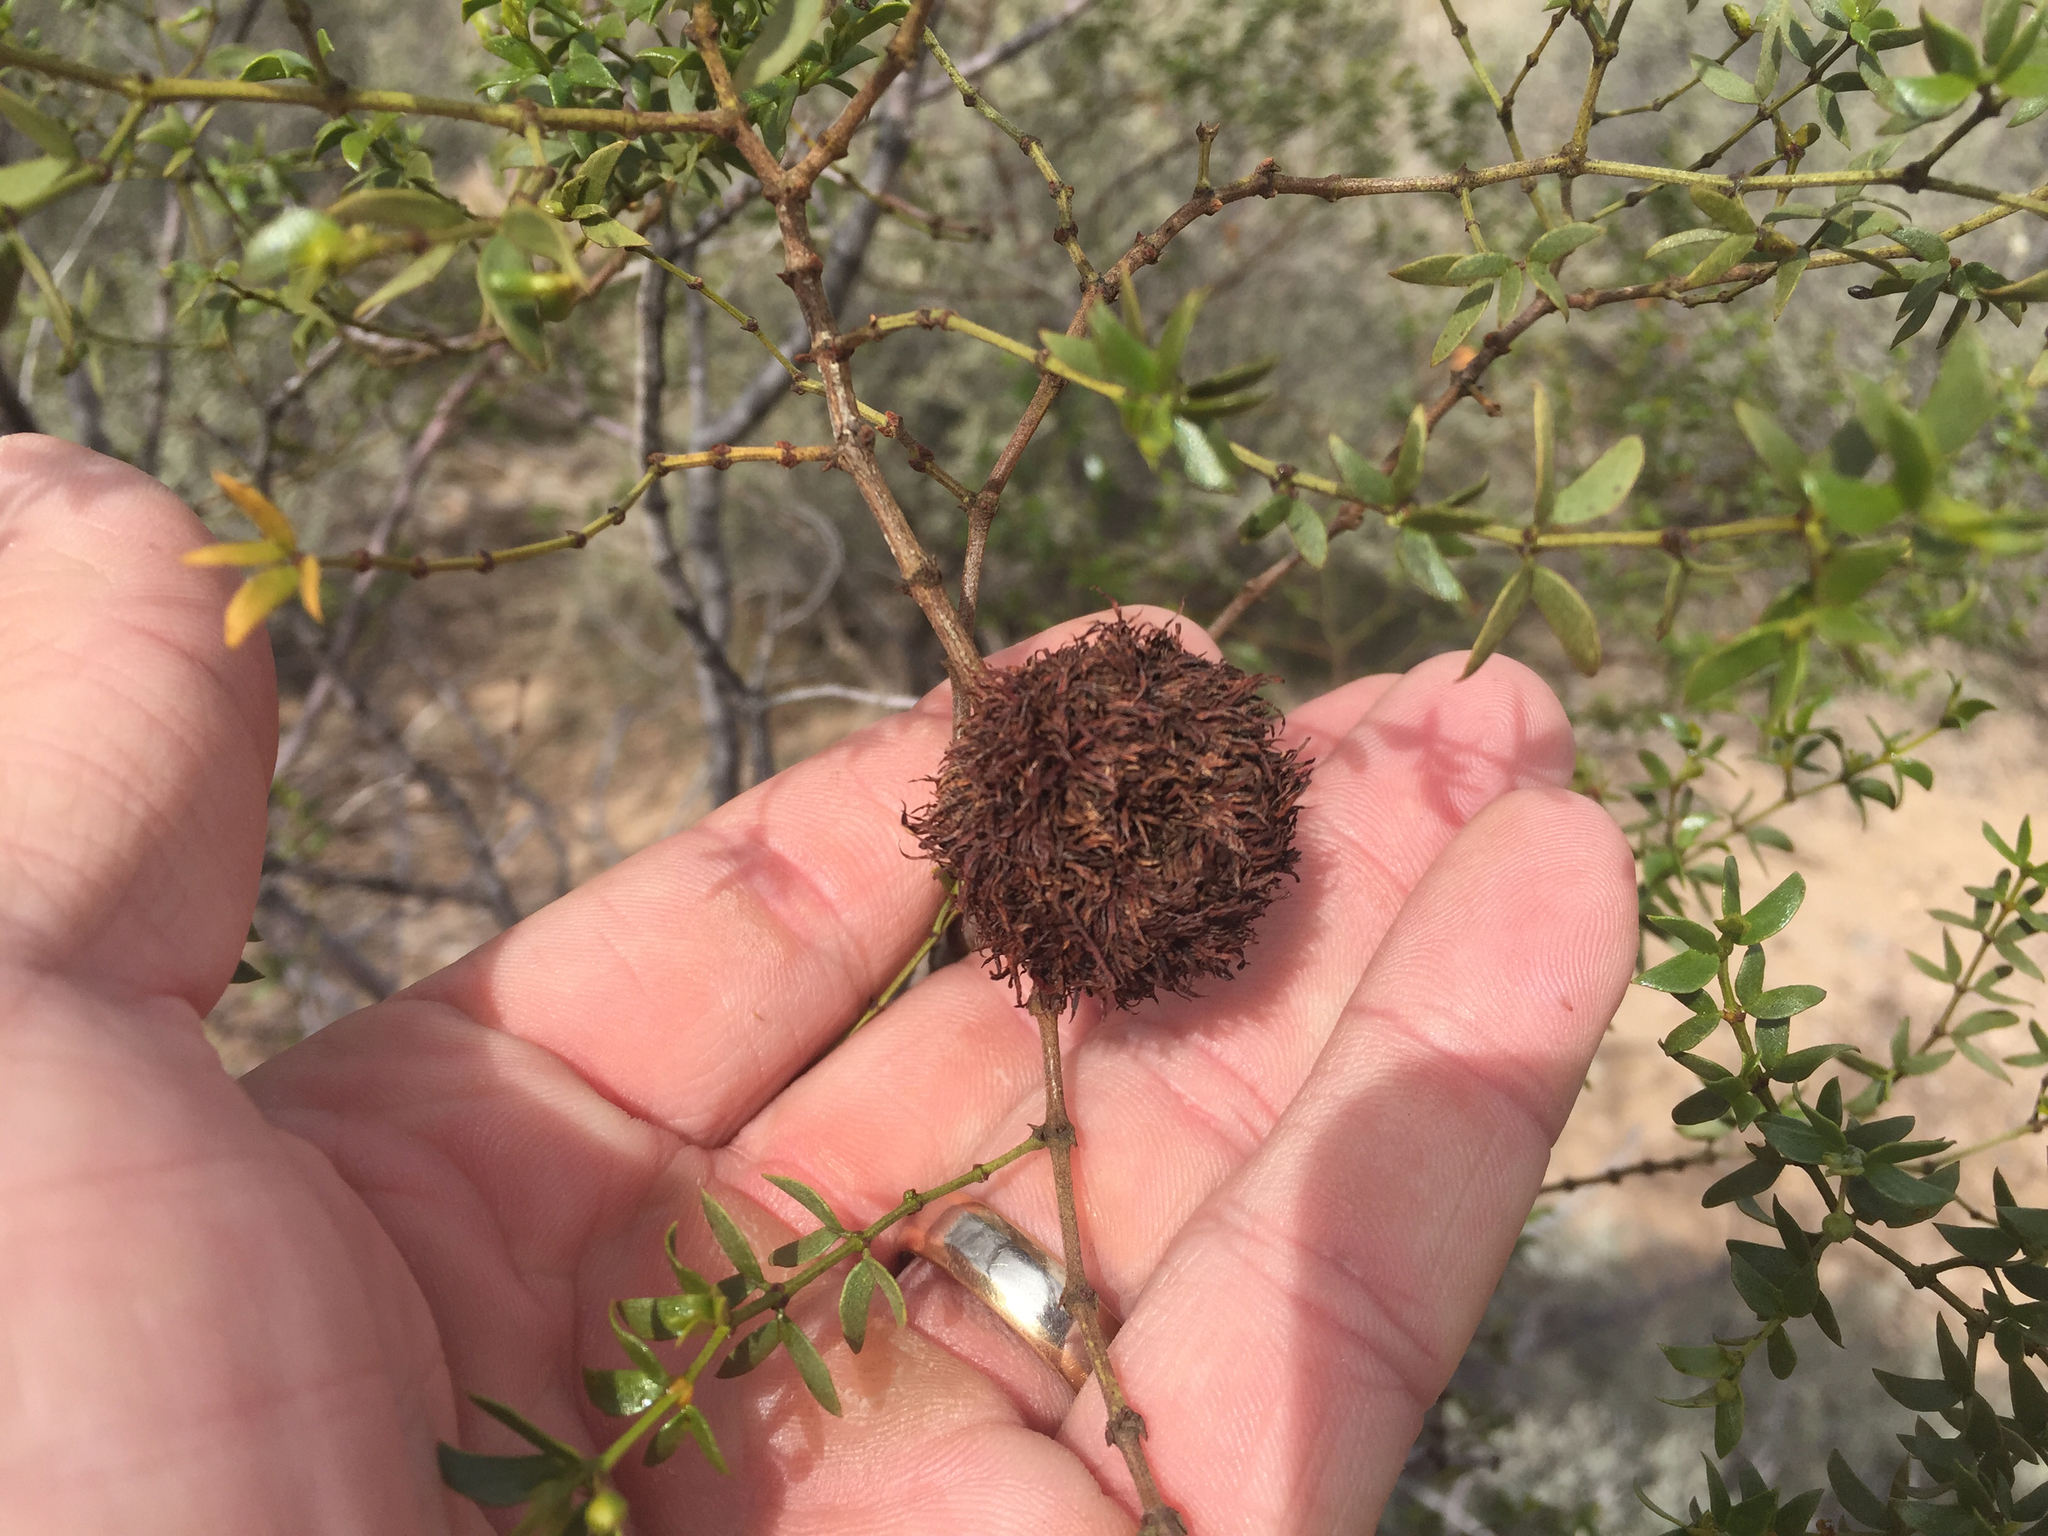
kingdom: Animalia
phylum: Arthropoda
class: Insecta
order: Diptera
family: Cecidomyiidae
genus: Asphondylia
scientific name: Asphondylia auripila
